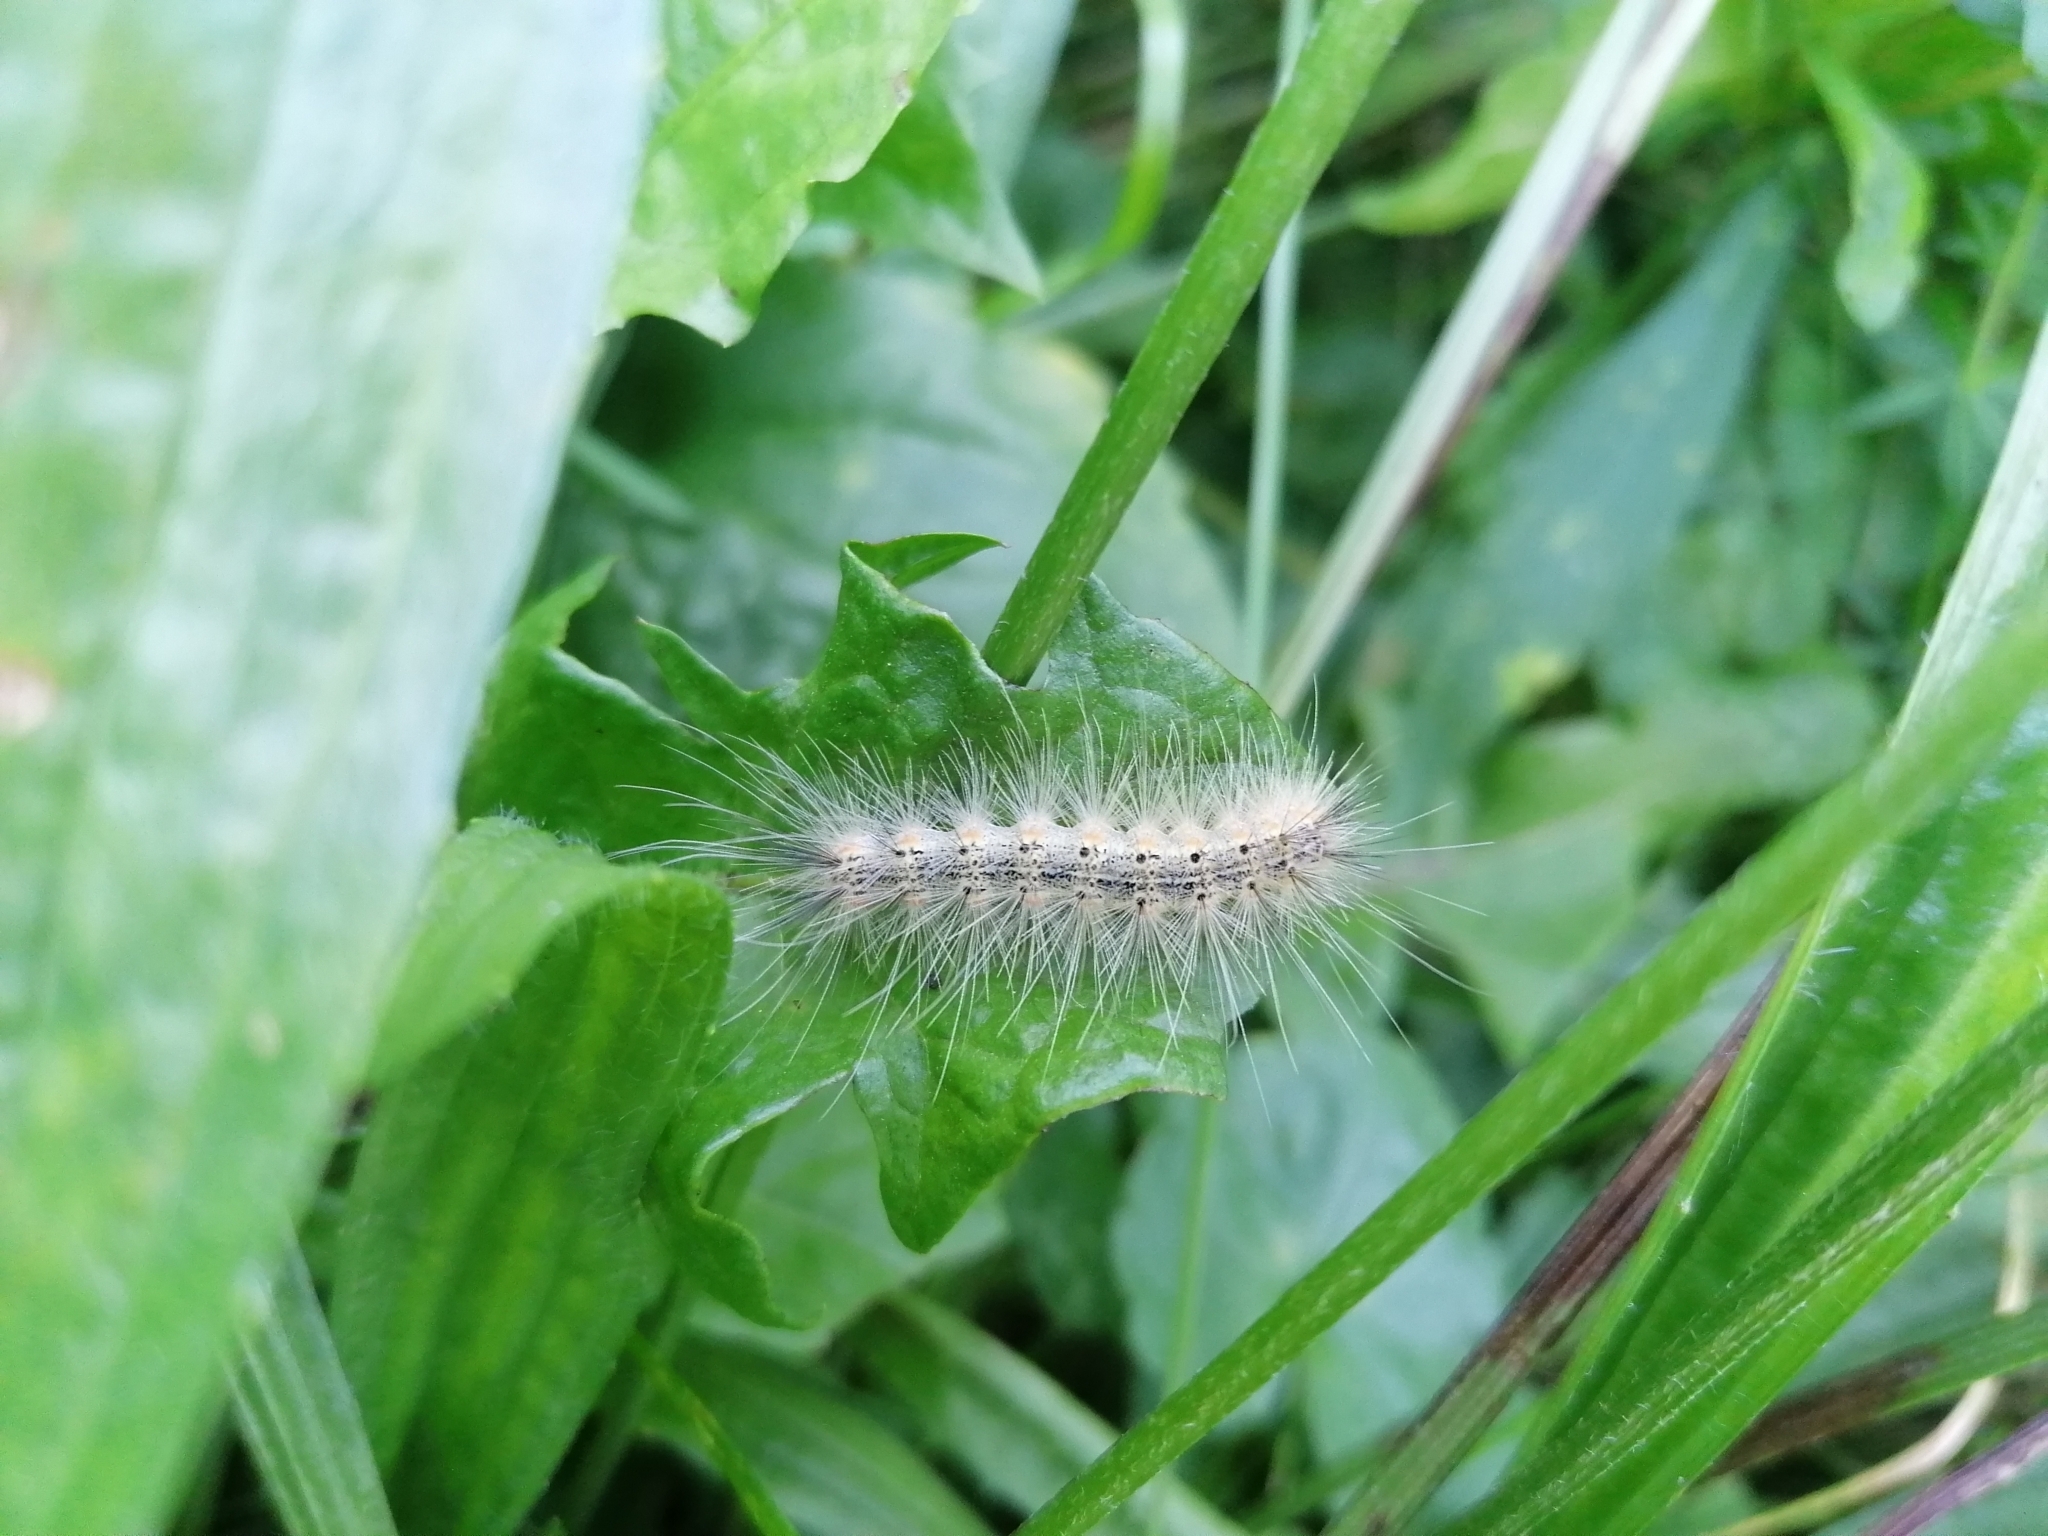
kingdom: Animalia
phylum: Arthropoda
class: Insecta
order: Lepidoptera
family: Erebidae
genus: Hyphantria
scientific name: Hyphantria cunea
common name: American white moth
